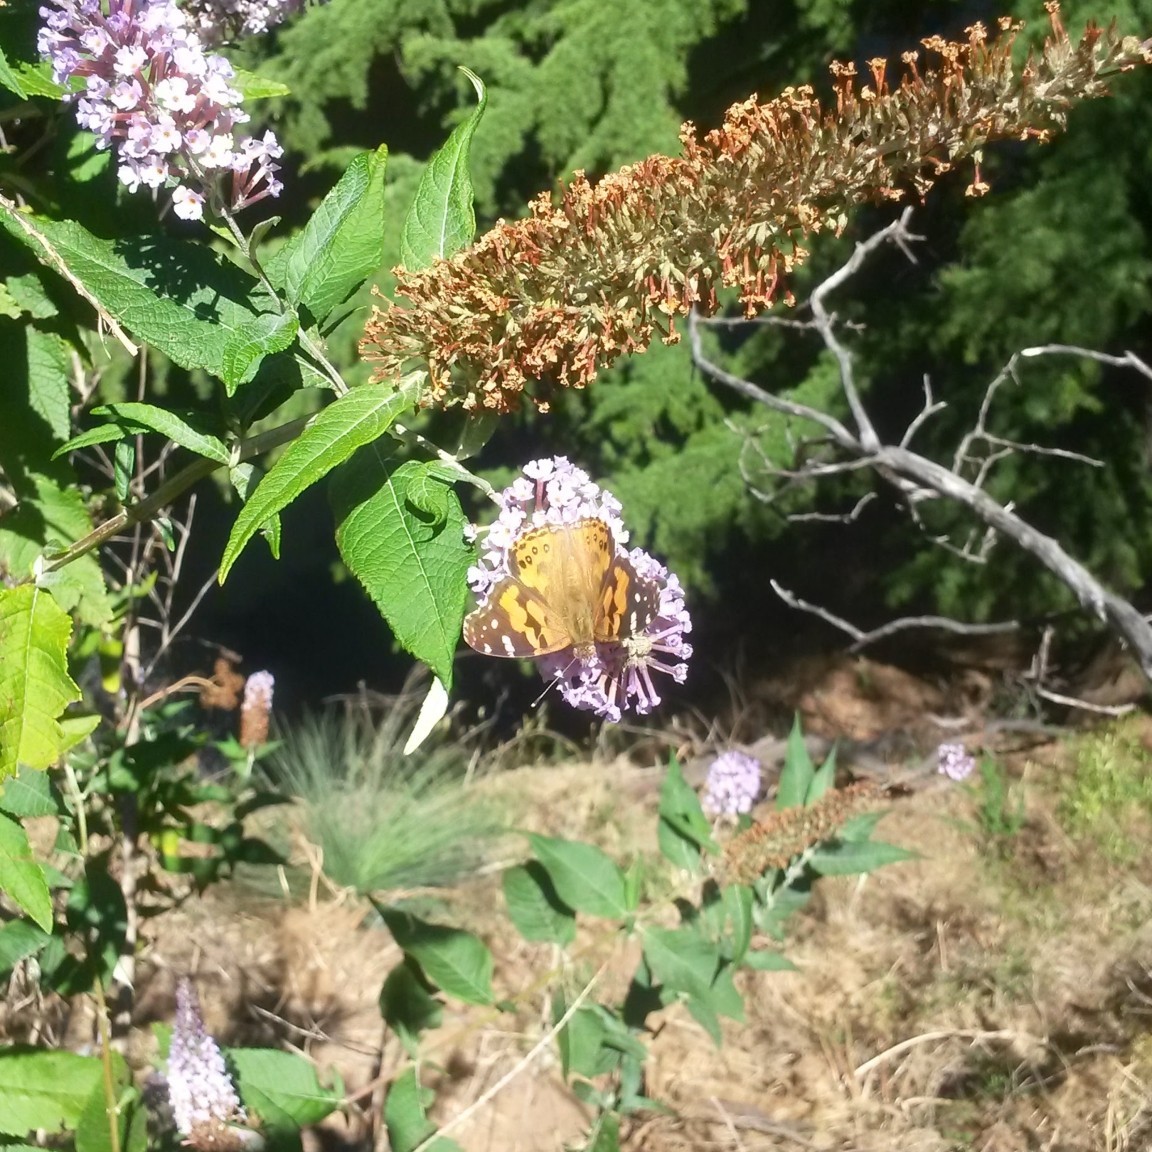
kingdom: Animalia
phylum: Arthropoda
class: Insecta
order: Lepidoptera
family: Nymphalidae
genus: Vanessa
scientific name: Vanessa kershawi
